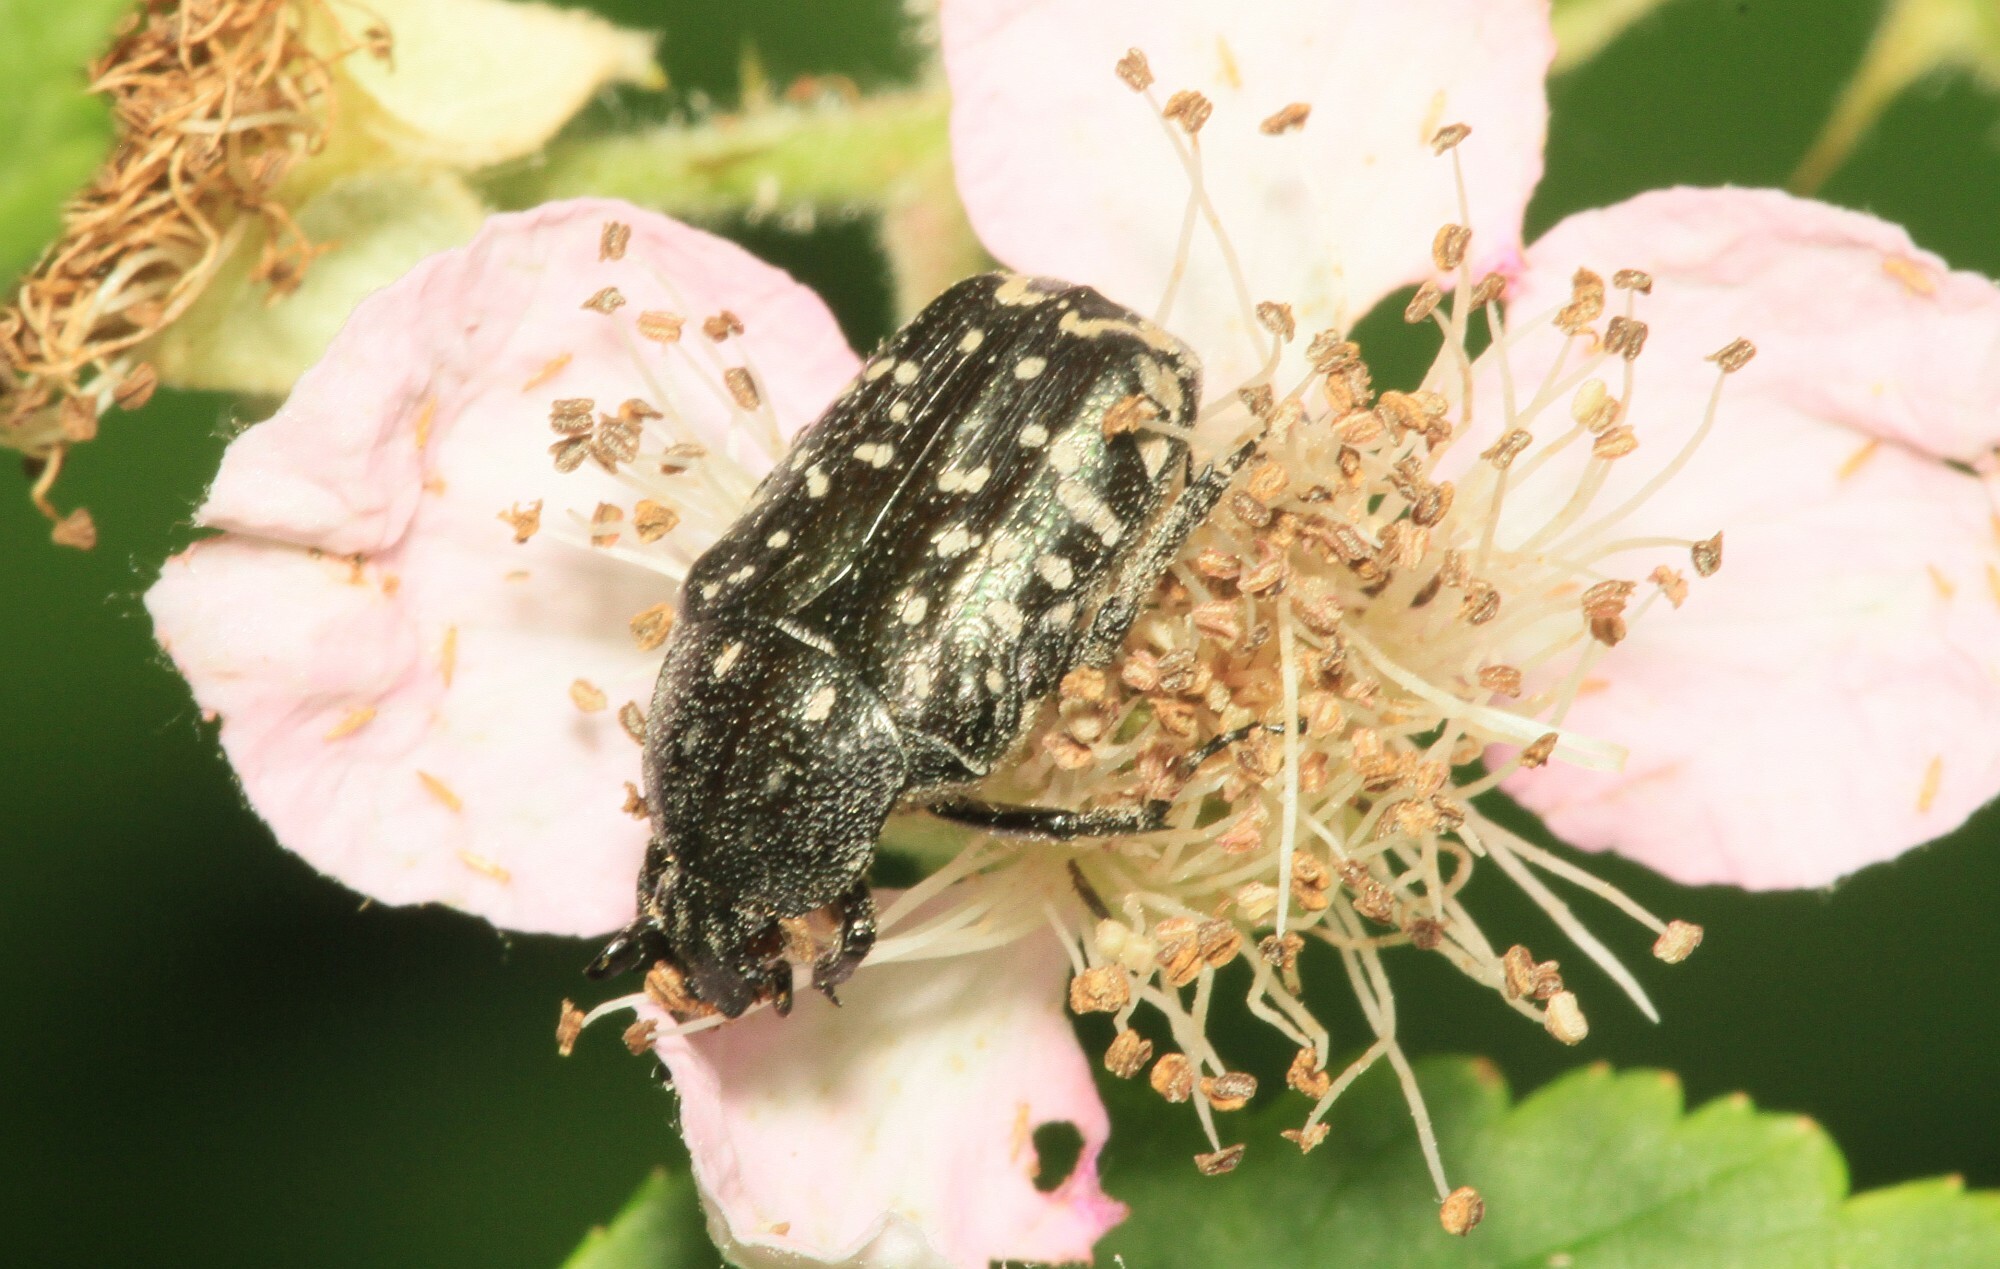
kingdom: Animalia
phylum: Arthropoda
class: Insecta
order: Coleoptera
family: Scarabaeidae
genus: Oxythyrea
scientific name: Oxythyrea funesta
